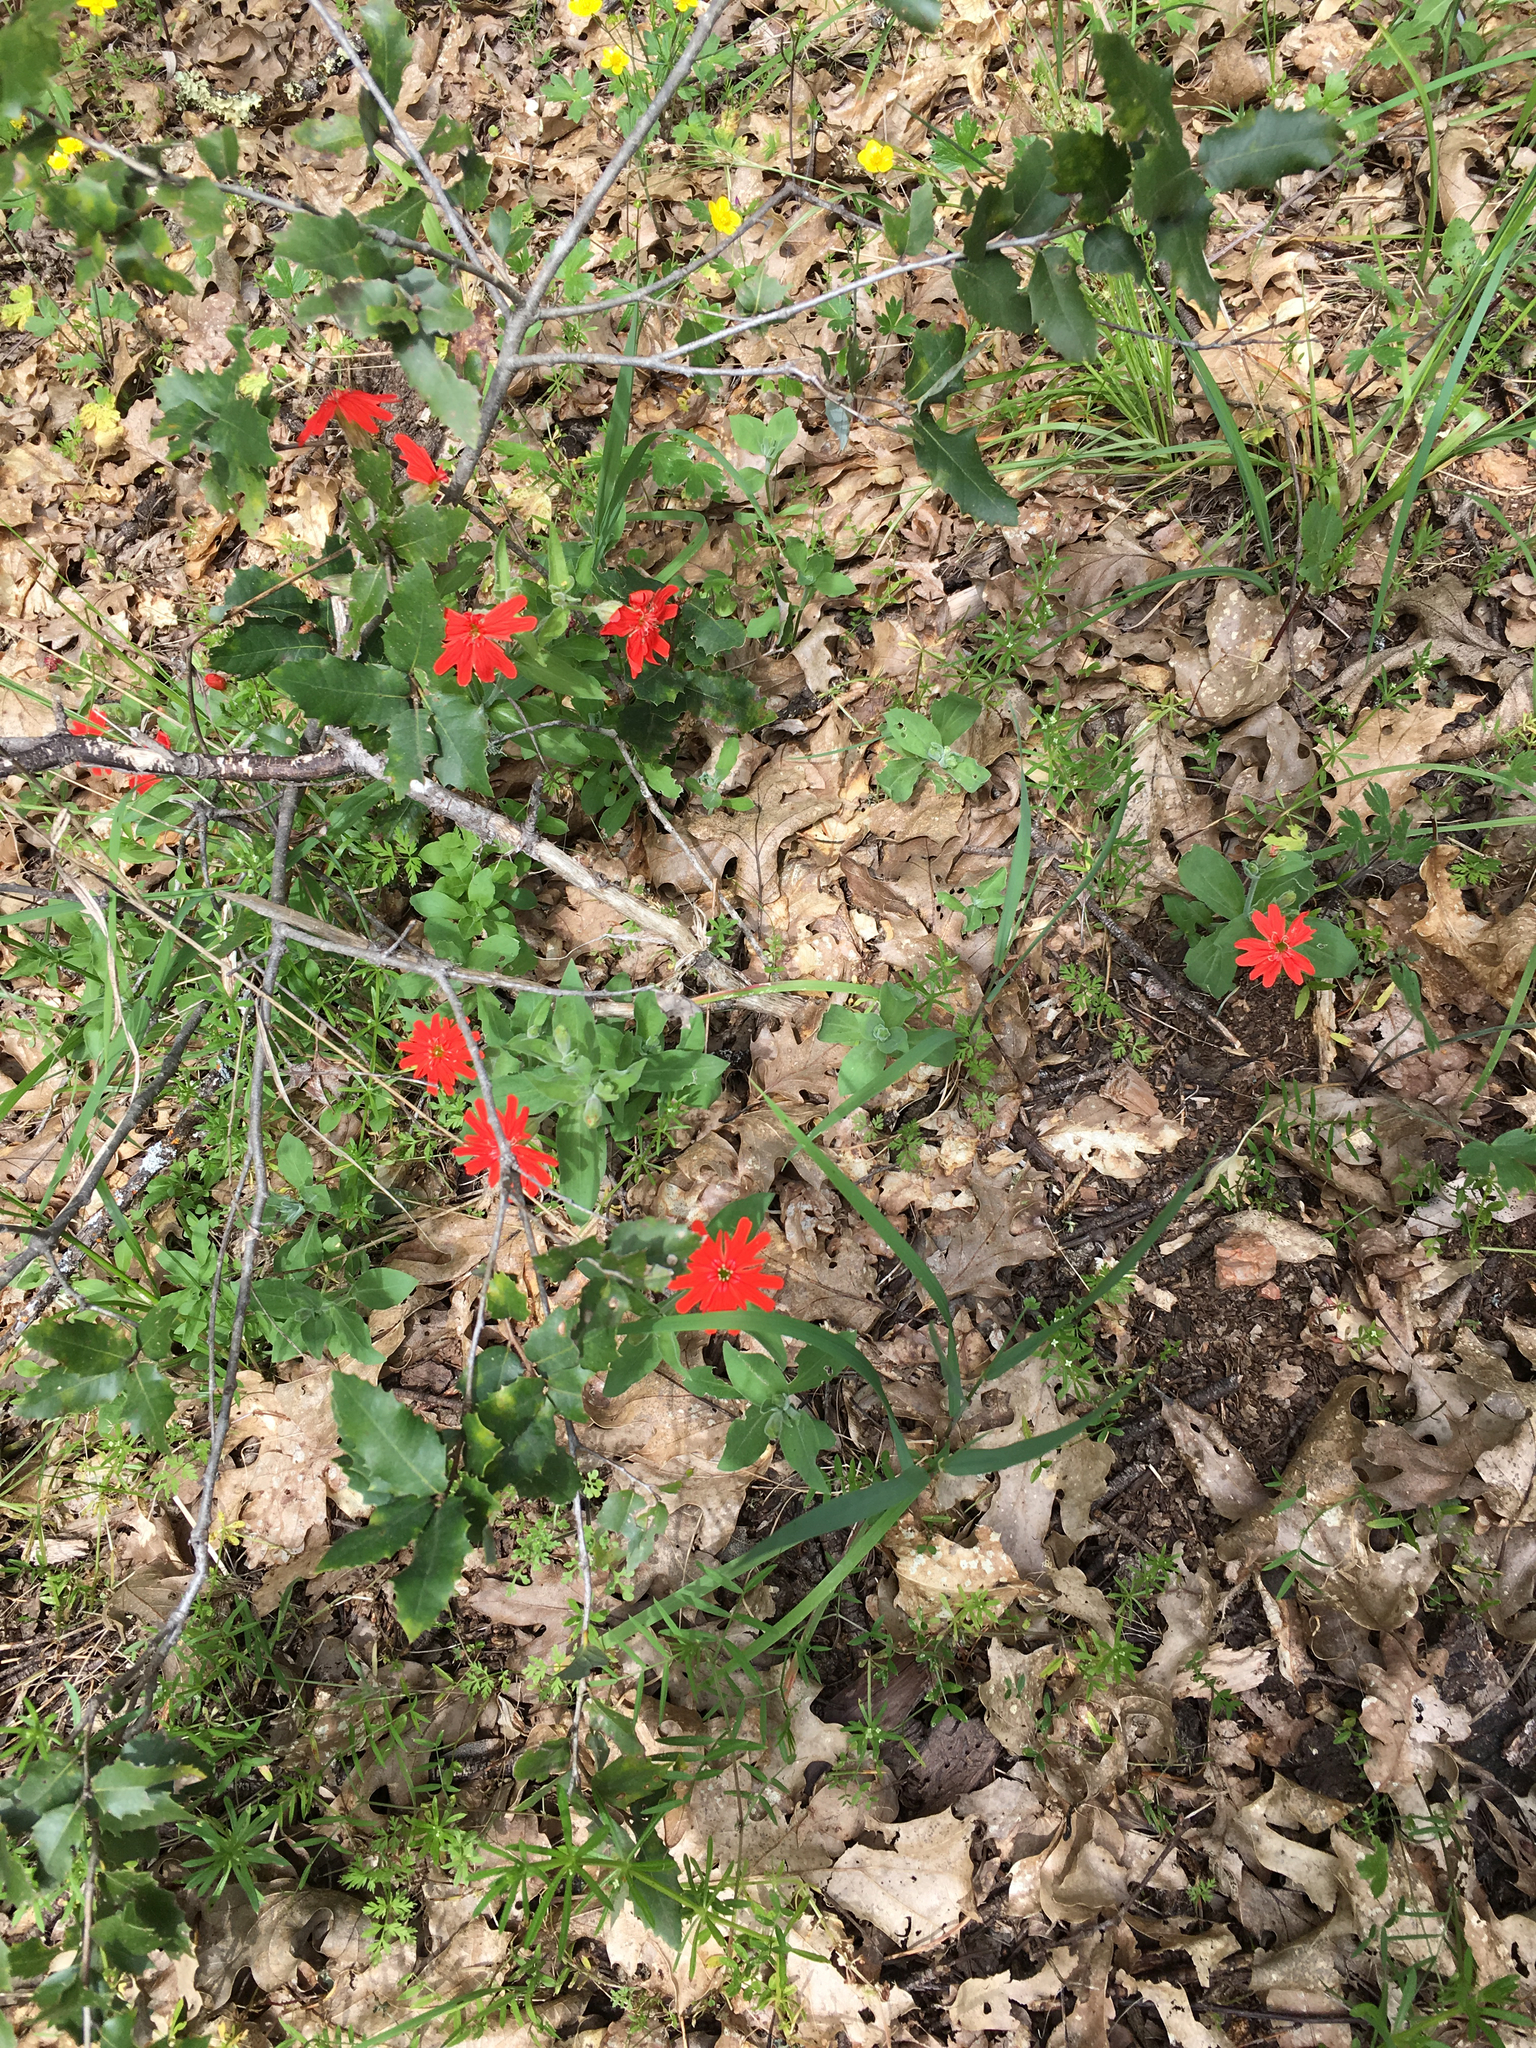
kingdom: Plantae
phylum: Tracheophyta
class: Magnoliopsida
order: Caryophyllales
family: Caryophyllaceae
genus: Silene
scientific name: Silene laciniata
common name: Indian-pink
